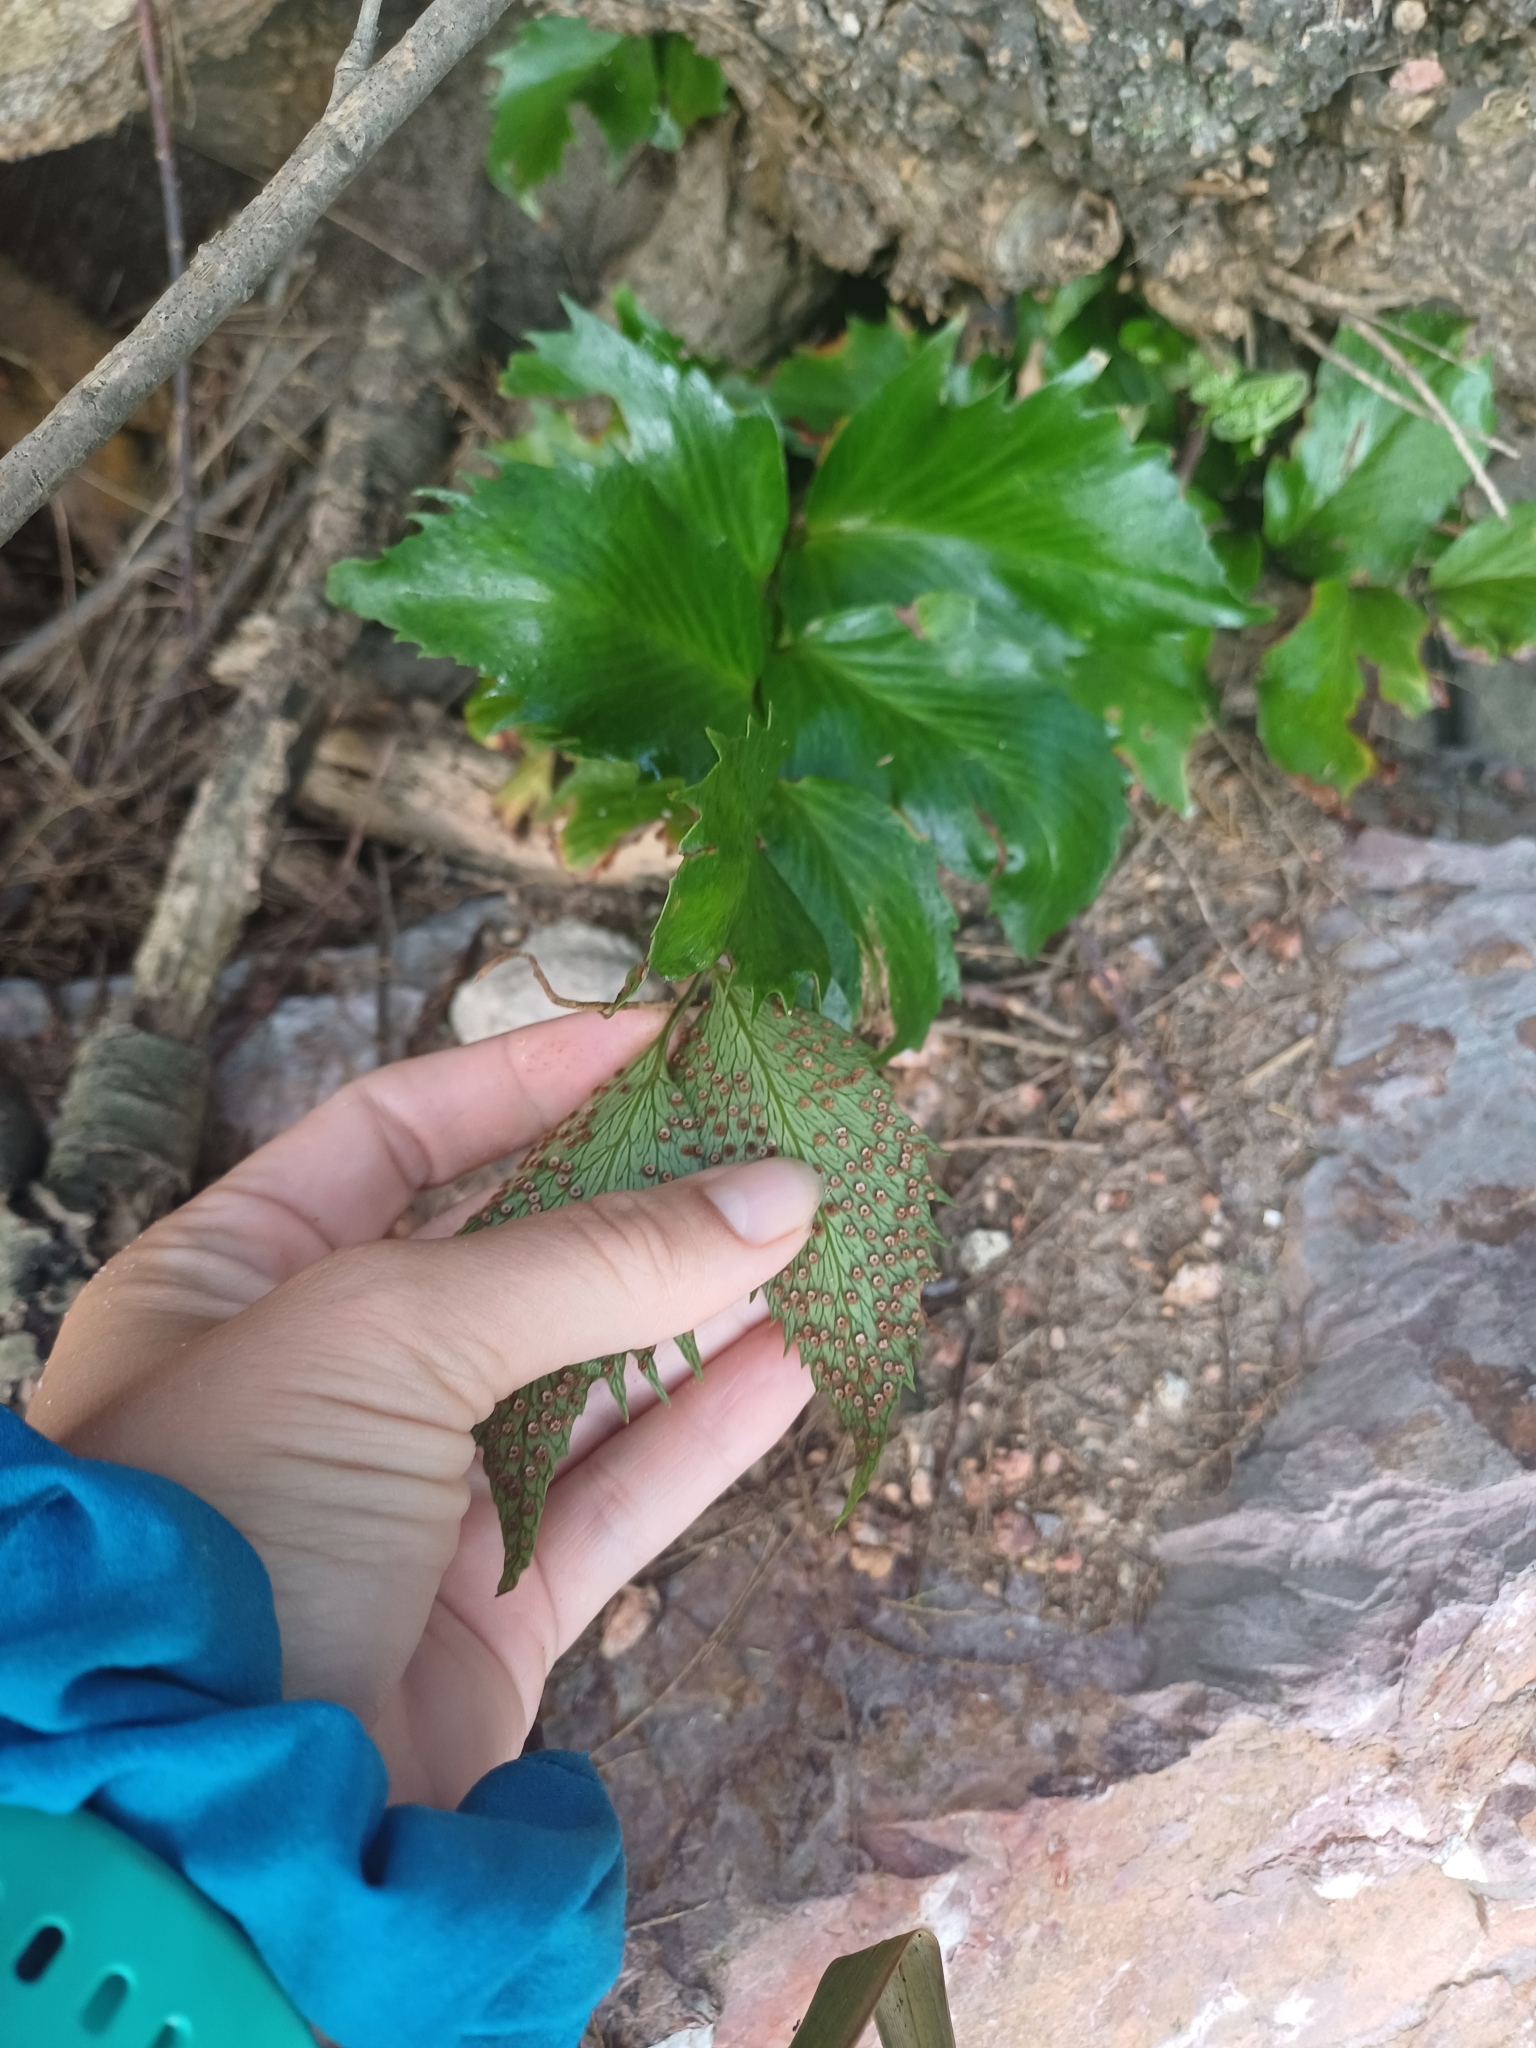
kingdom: Plantae
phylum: Tracheophyta
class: Polypodiopsida
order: Polypodiales
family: Dryopteridaceae
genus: Cyrtomium
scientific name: Cyrtomium falcatum
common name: House holly-fern
